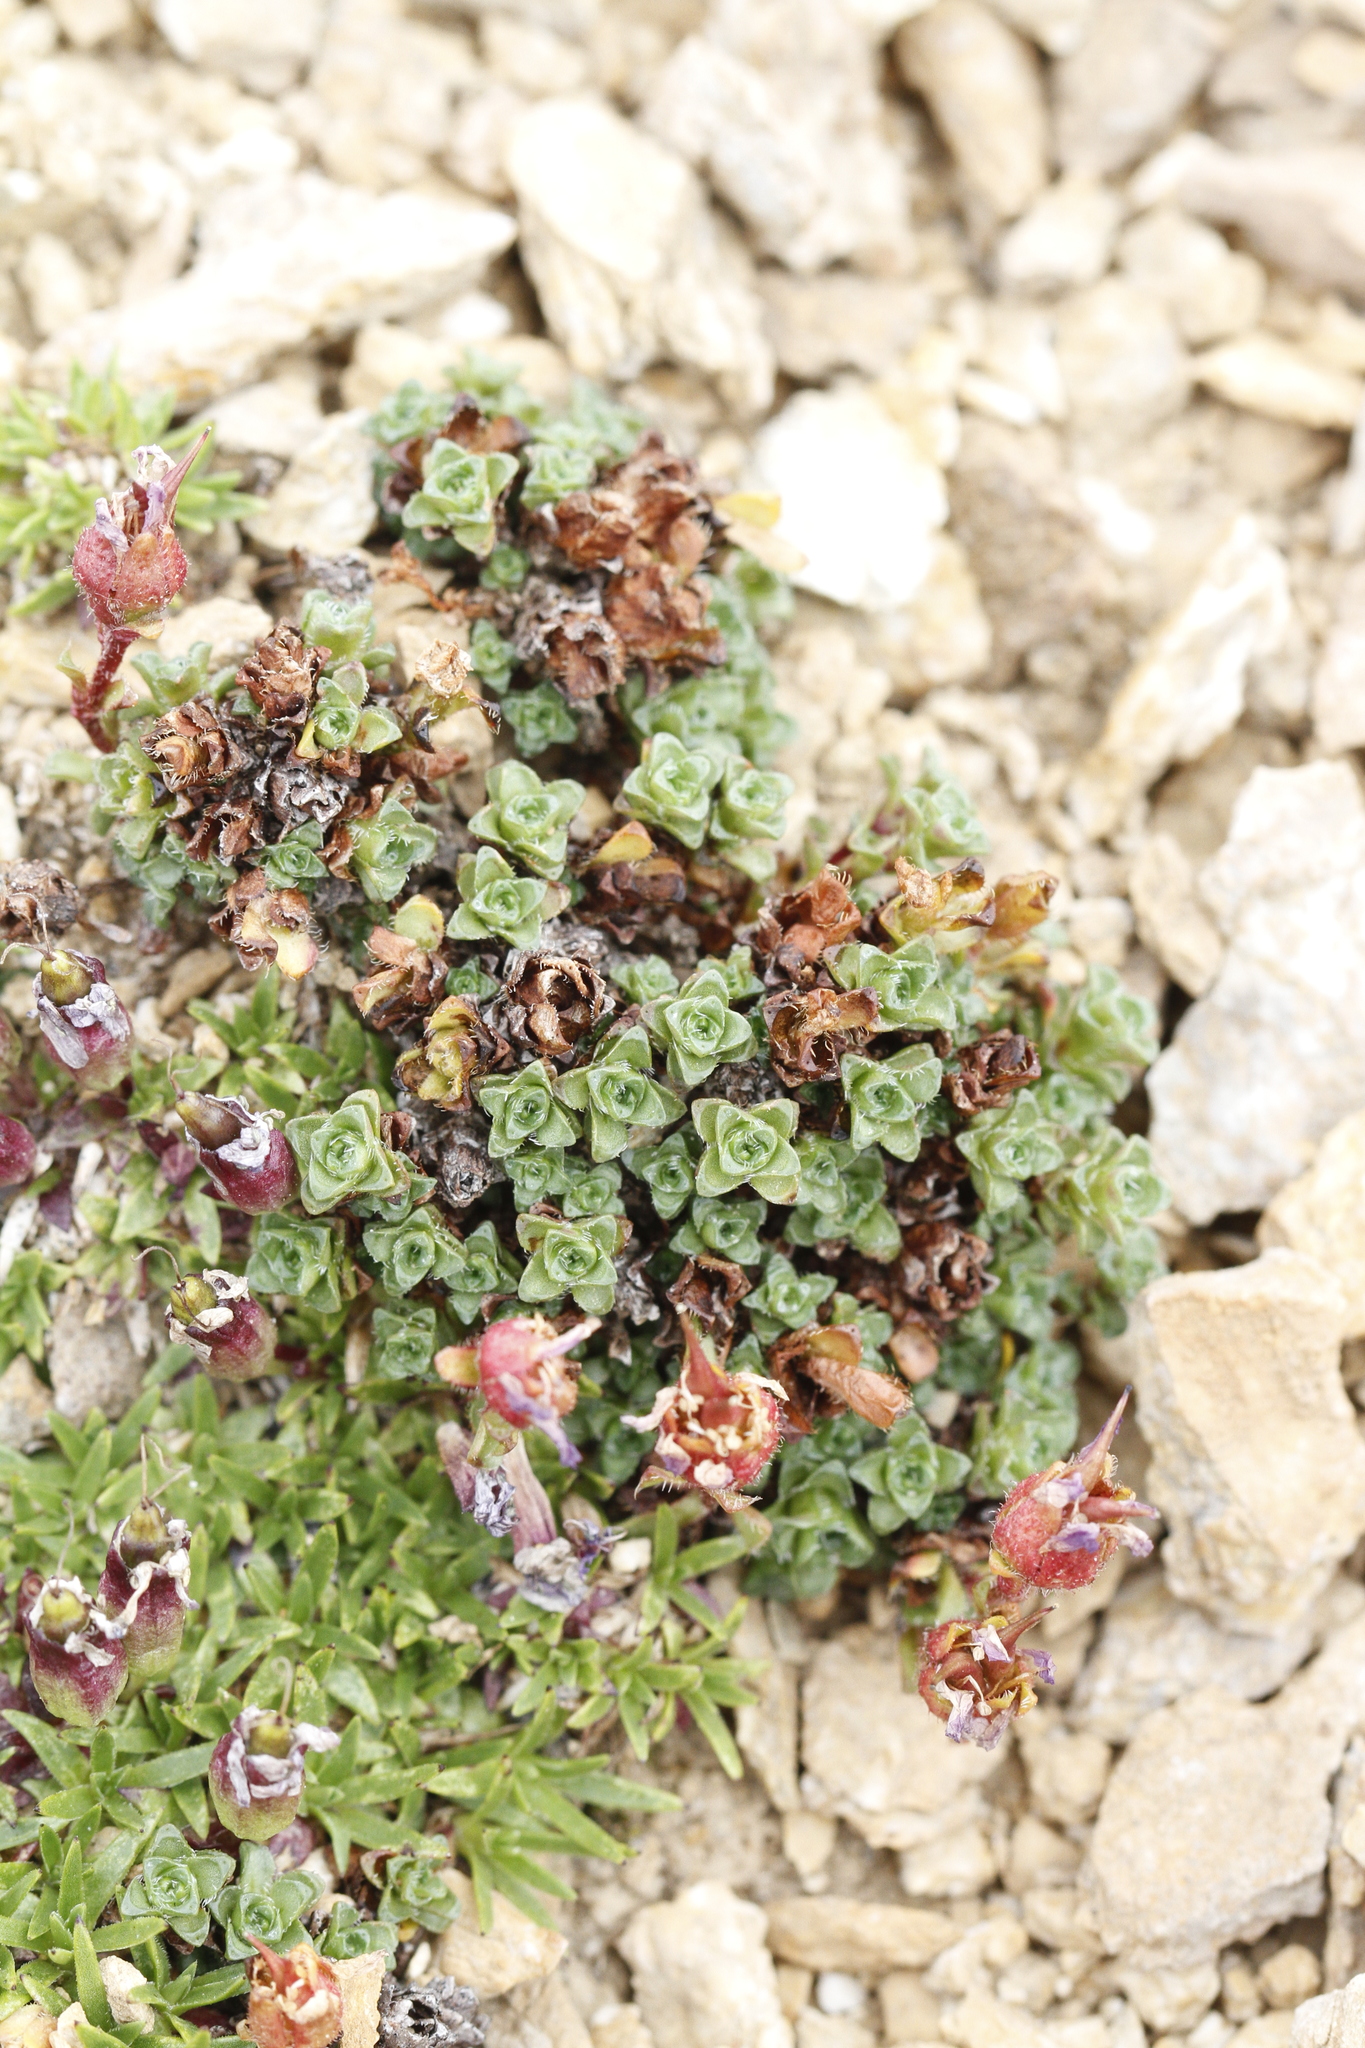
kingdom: Plantae
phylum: Tracheophyta
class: Magnoliopsida
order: Saxifragales
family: Saxifragaceae
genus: Saxifraga
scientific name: Saxifraga oppositifolia
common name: Purple saxifrage
